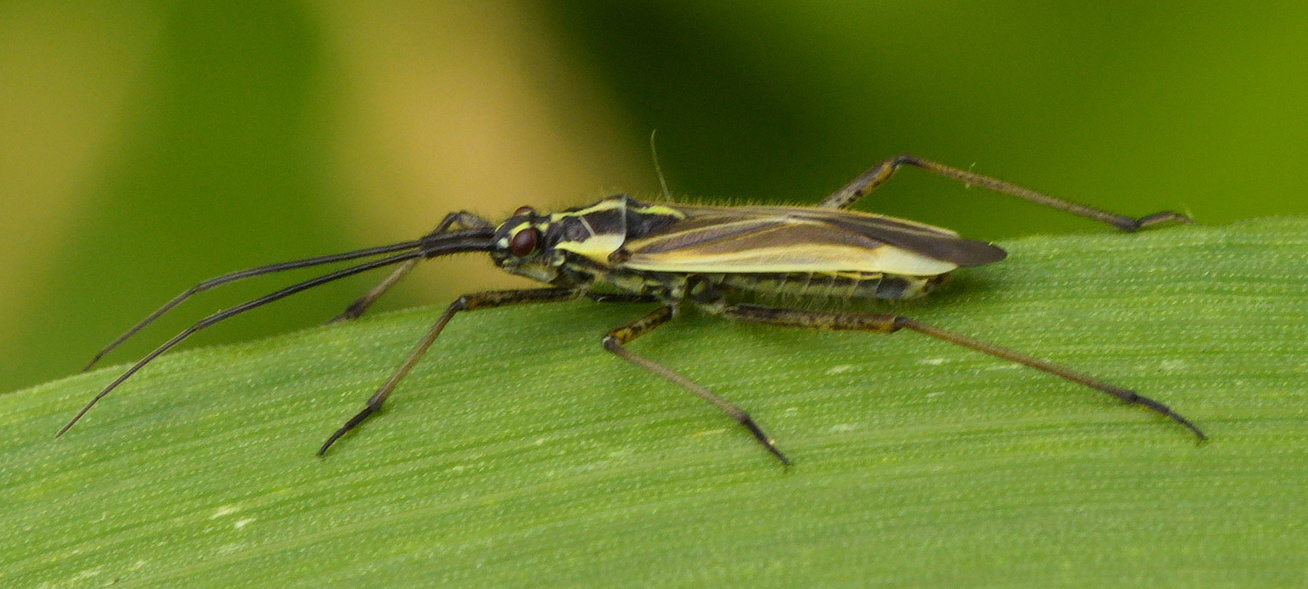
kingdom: Animalia
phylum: Arthropoda
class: Insecta
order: Hemiptera
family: Miridae
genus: Leptopterna
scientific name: Leptopterna dolabrata
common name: Meadow plant bug
